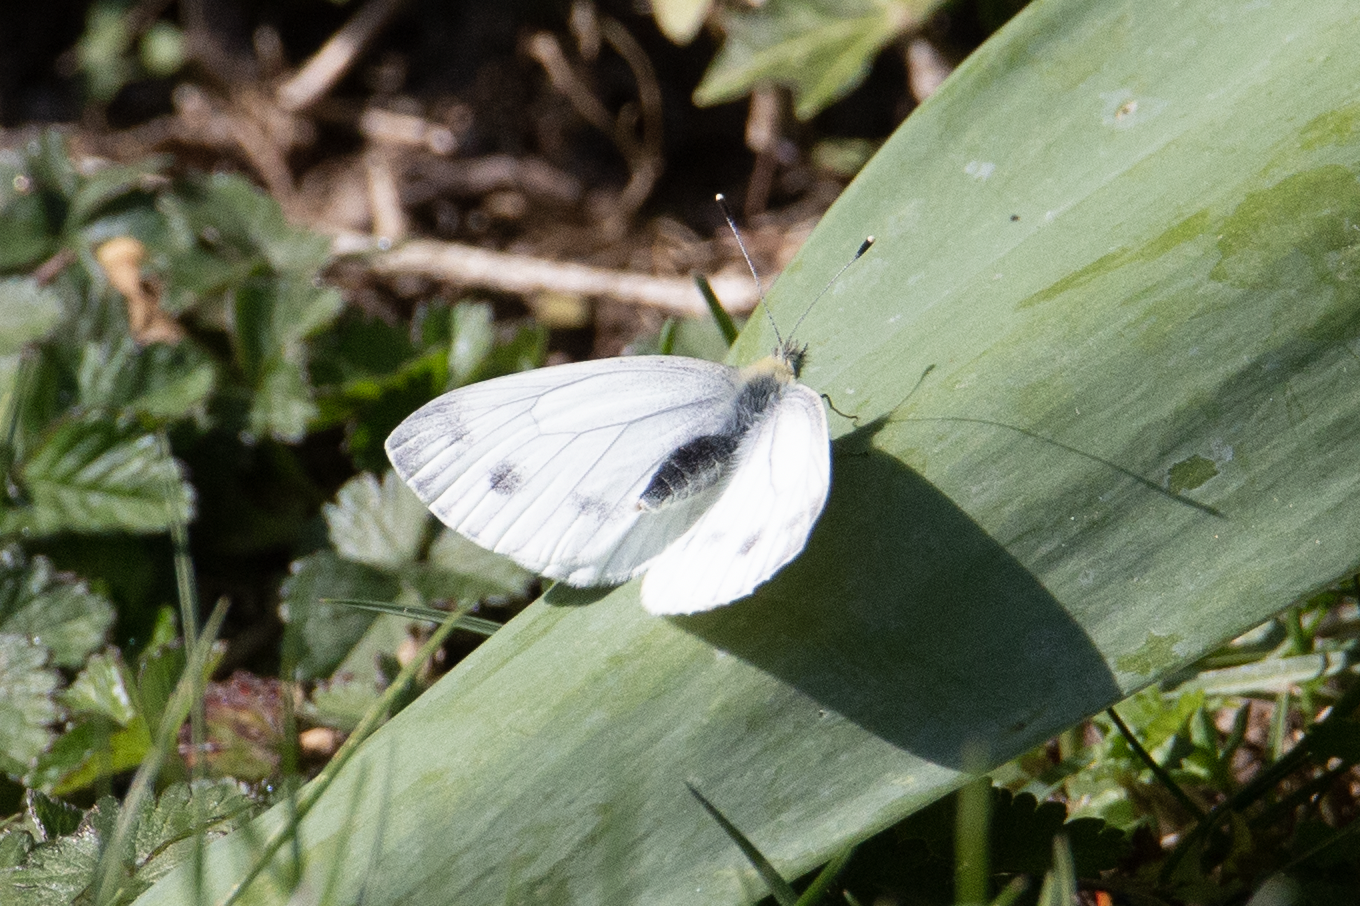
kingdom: Animalia
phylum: Arthropoda
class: Insecta
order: Lepidoptera
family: Pieridae
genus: Pieris
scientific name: Pieris napi
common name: Green-veined white
